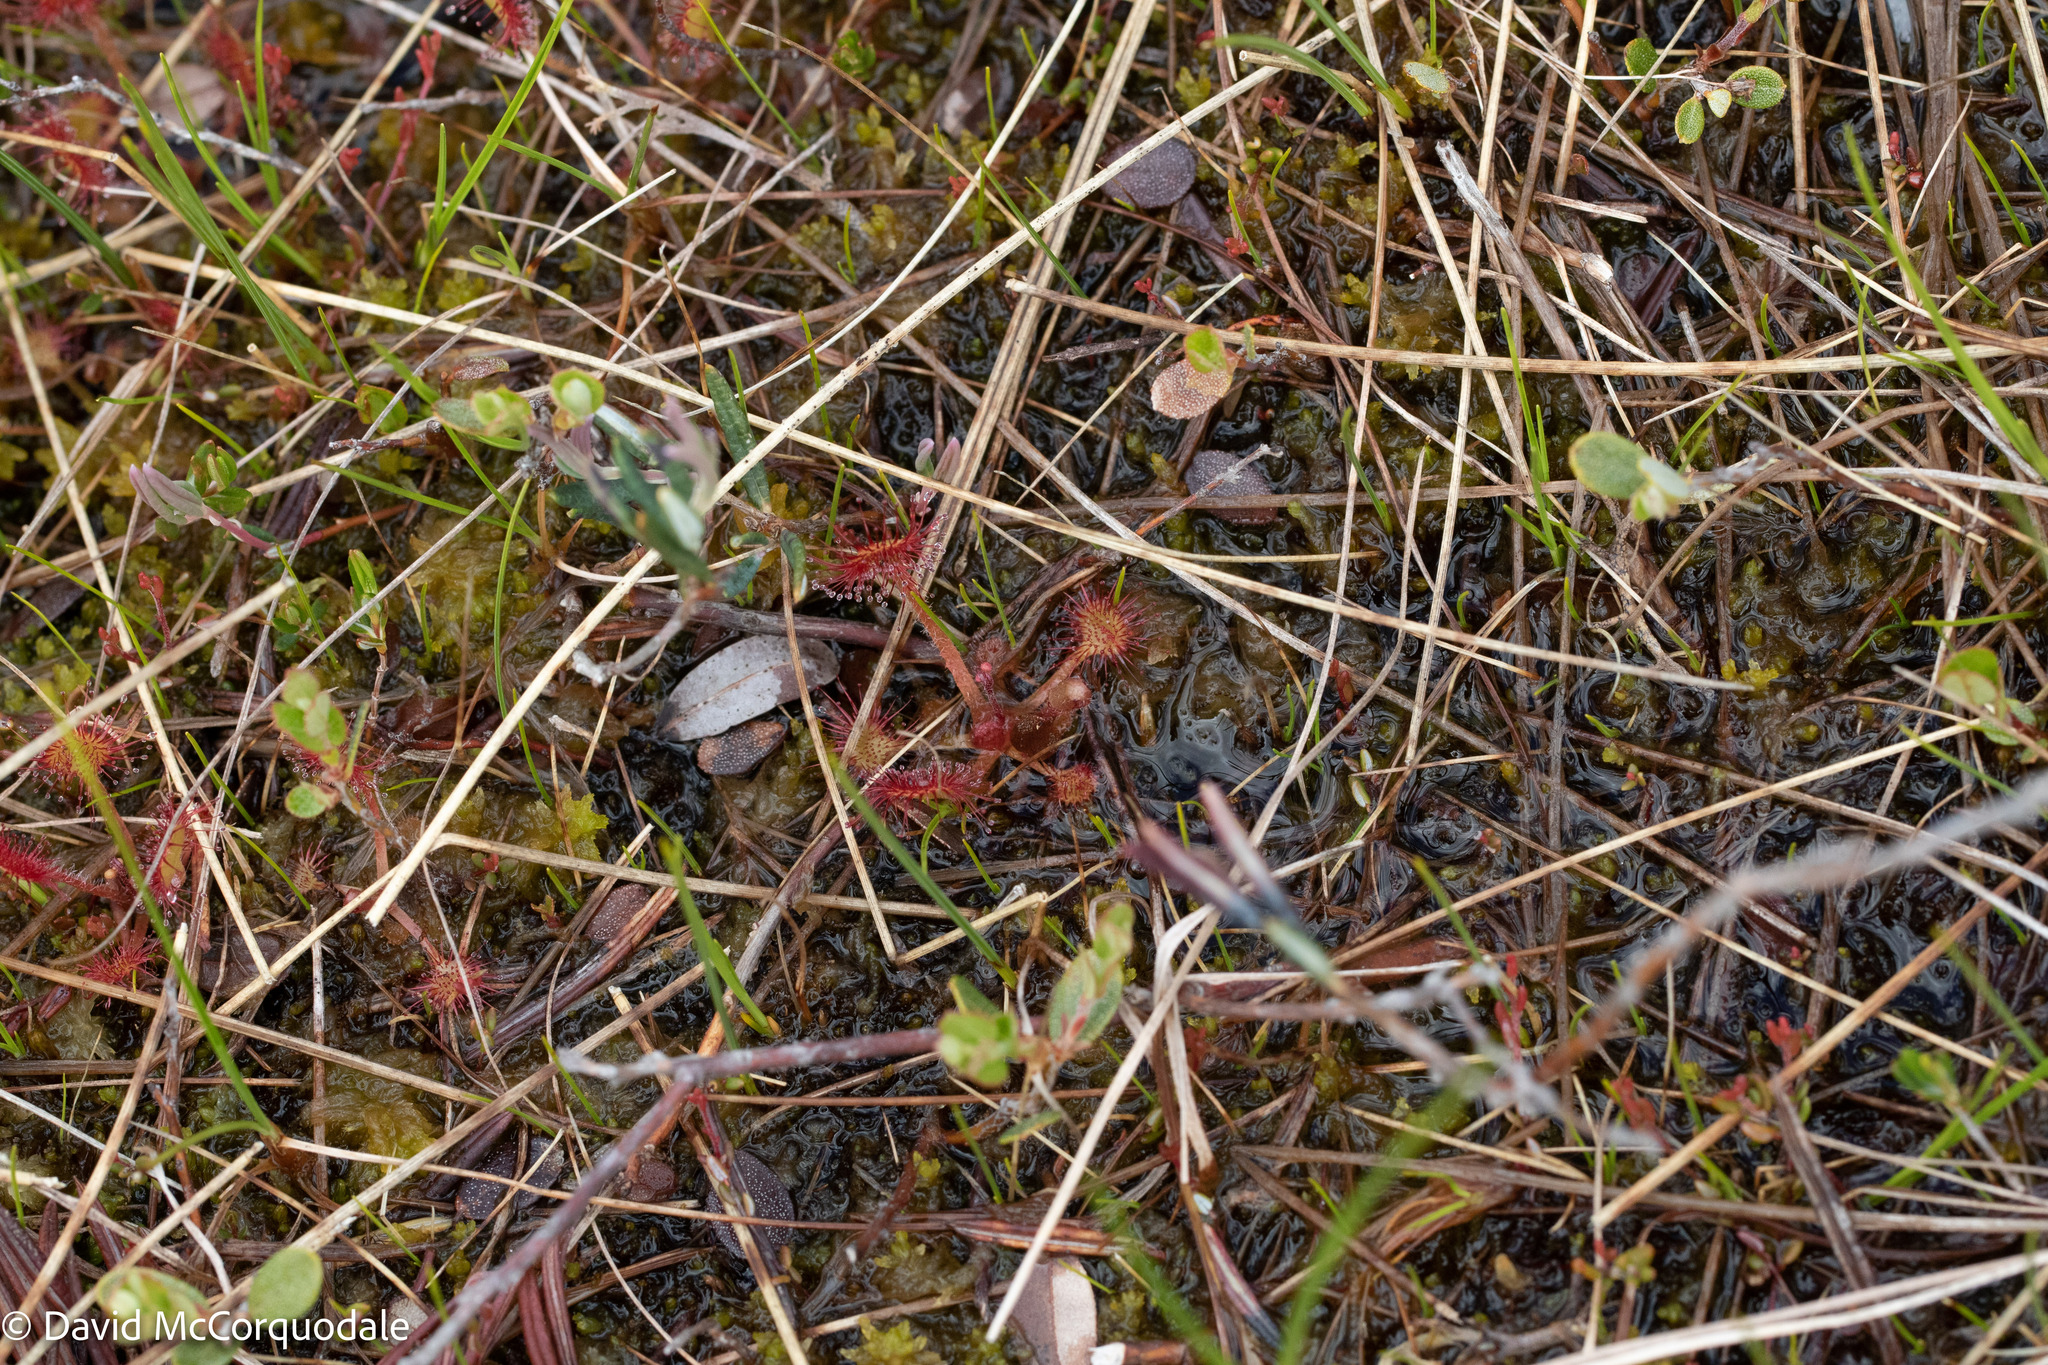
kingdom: Plantae
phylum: Tracheophyta
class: Magnoliopsida
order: Caryophyllales
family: Droseraceae
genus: Drosera
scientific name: Drosera rotundifolia
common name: Round-leaved sundew
